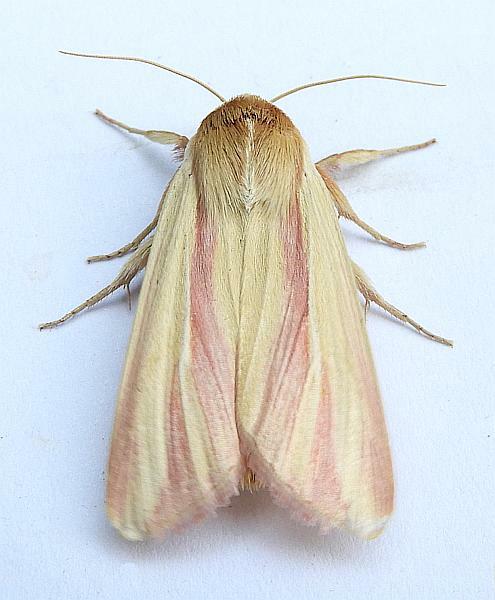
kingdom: Animalia
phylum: Arthropoda
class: Insecta
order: Lepidoptera
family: Noctuidae
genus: Dargida
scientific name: Dargida rubripennis
